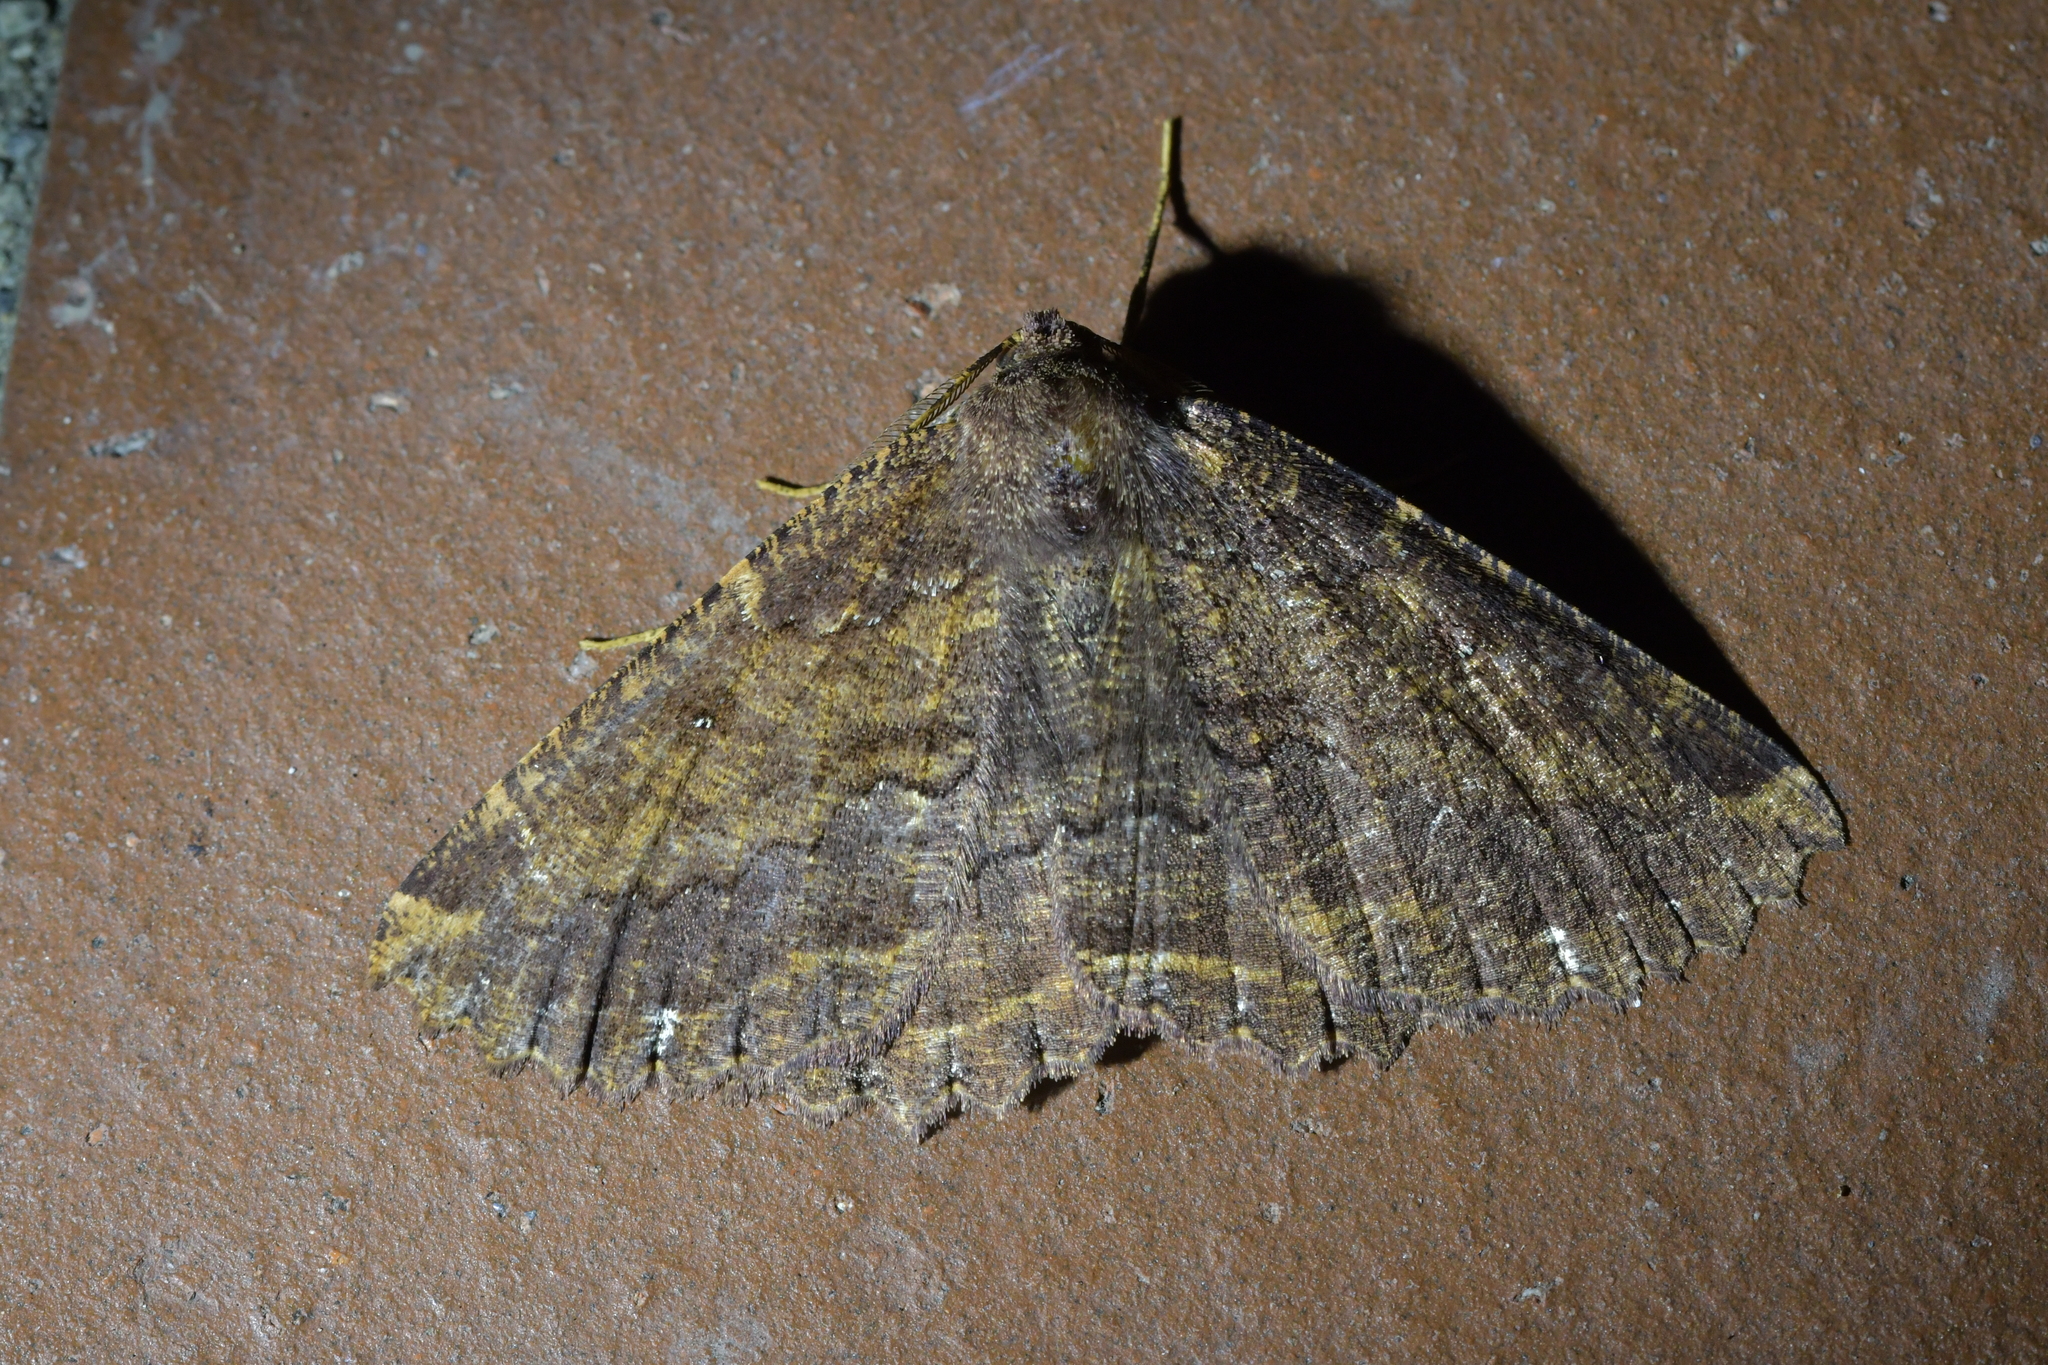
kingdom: Animalia
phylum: Arthropoda
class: Insecta
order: Lepidoptera
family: Geometridae
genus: Gellonia
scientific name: Gellonia dejectaria
